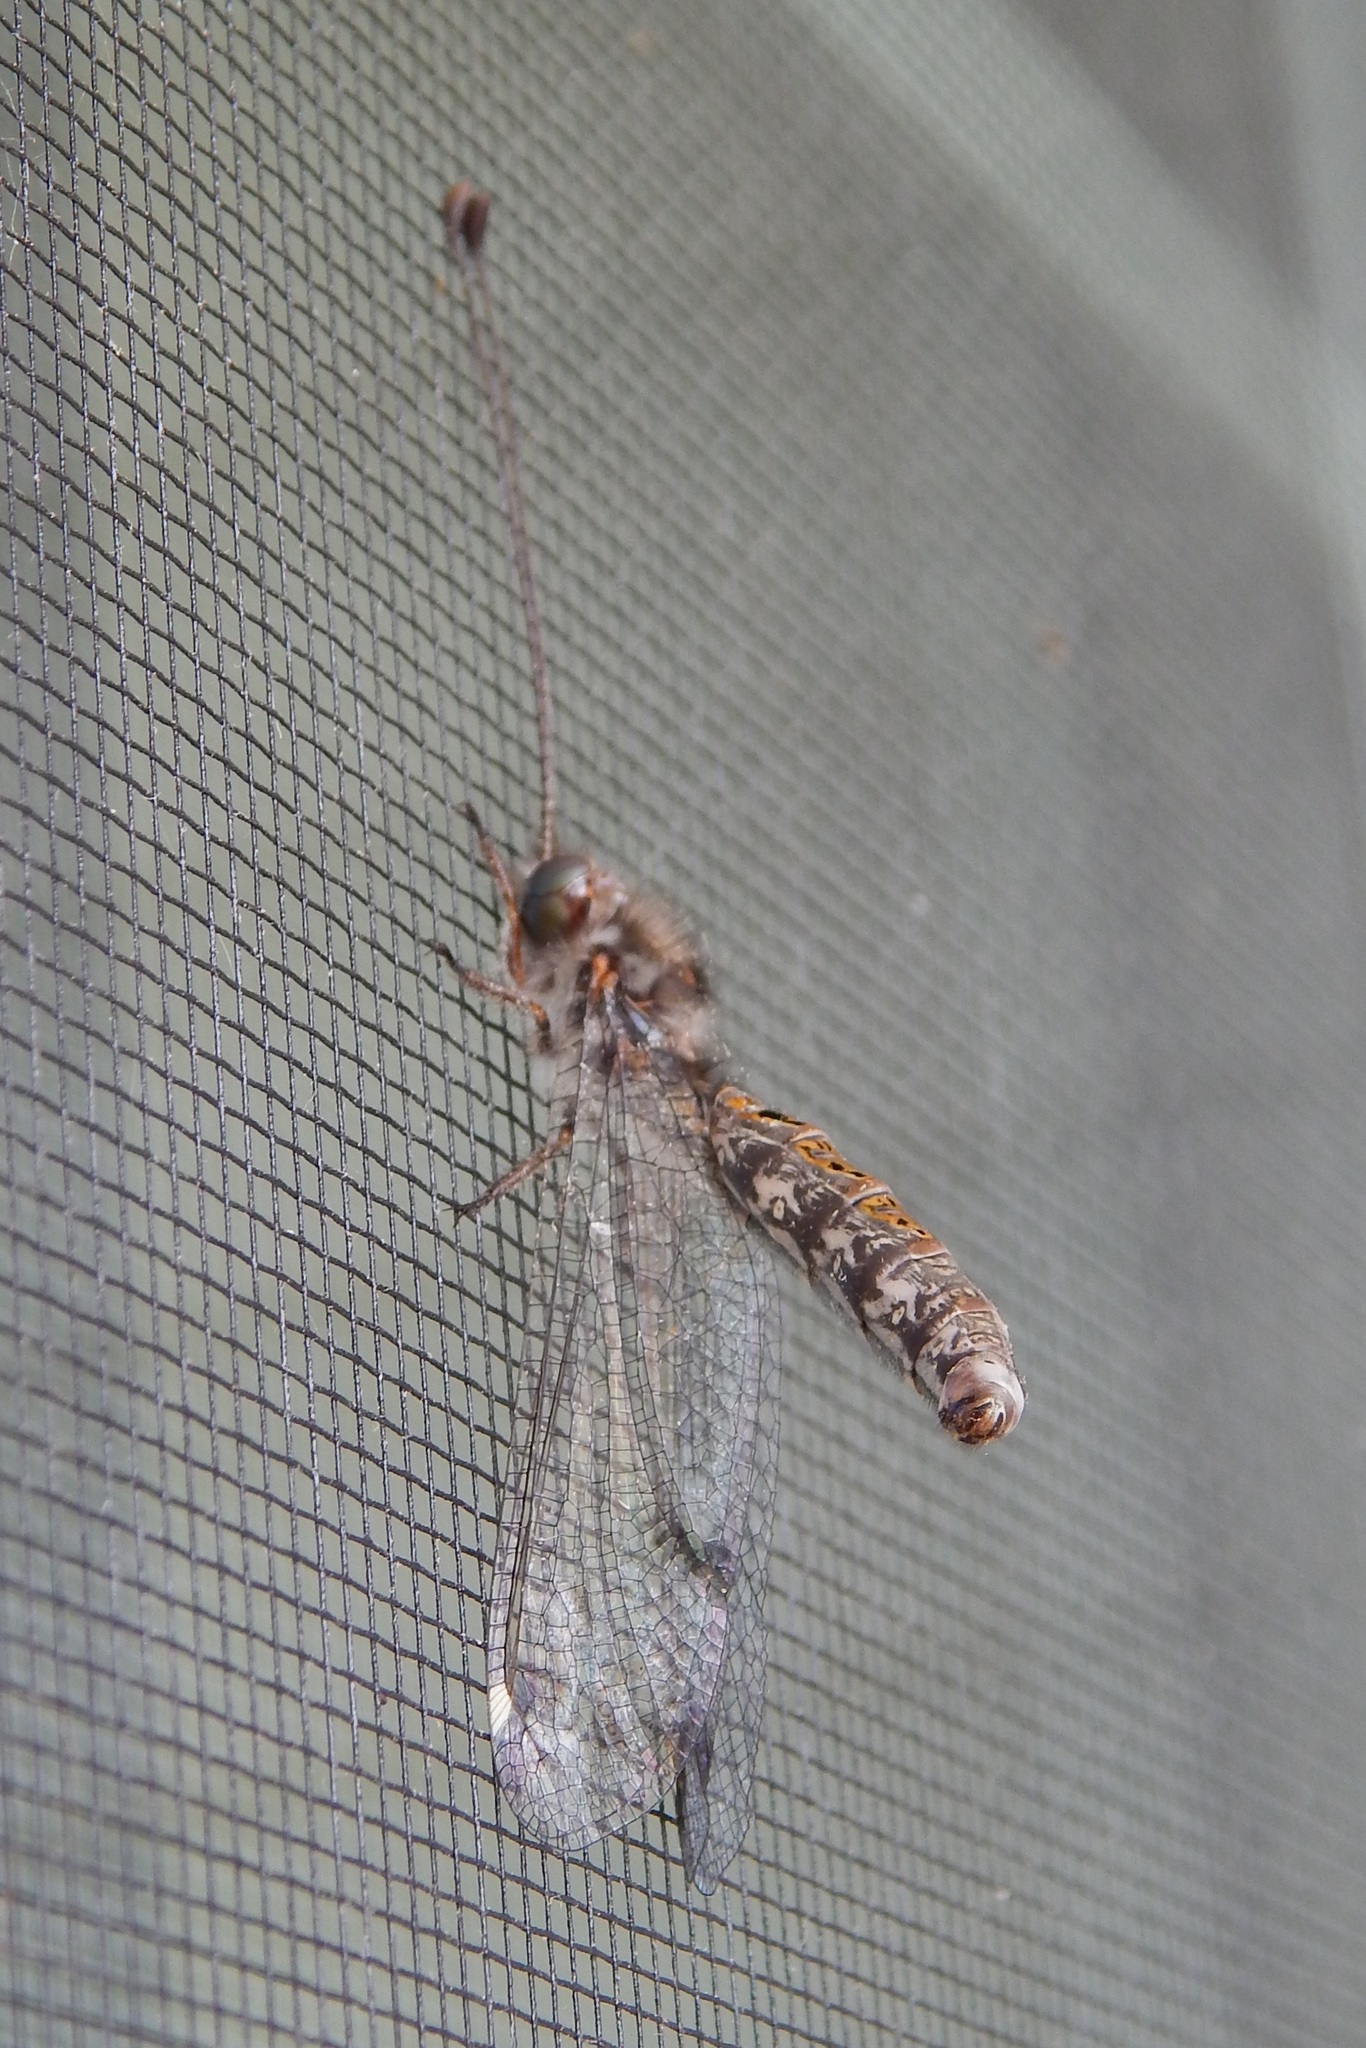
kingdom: Animalia
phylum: Arthropoda
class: Insecta
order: Neuroptera
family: Ascalaphidae
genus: Ululodes
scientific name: Ululodes quadripunctatus
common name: Four-spotted owlfly
